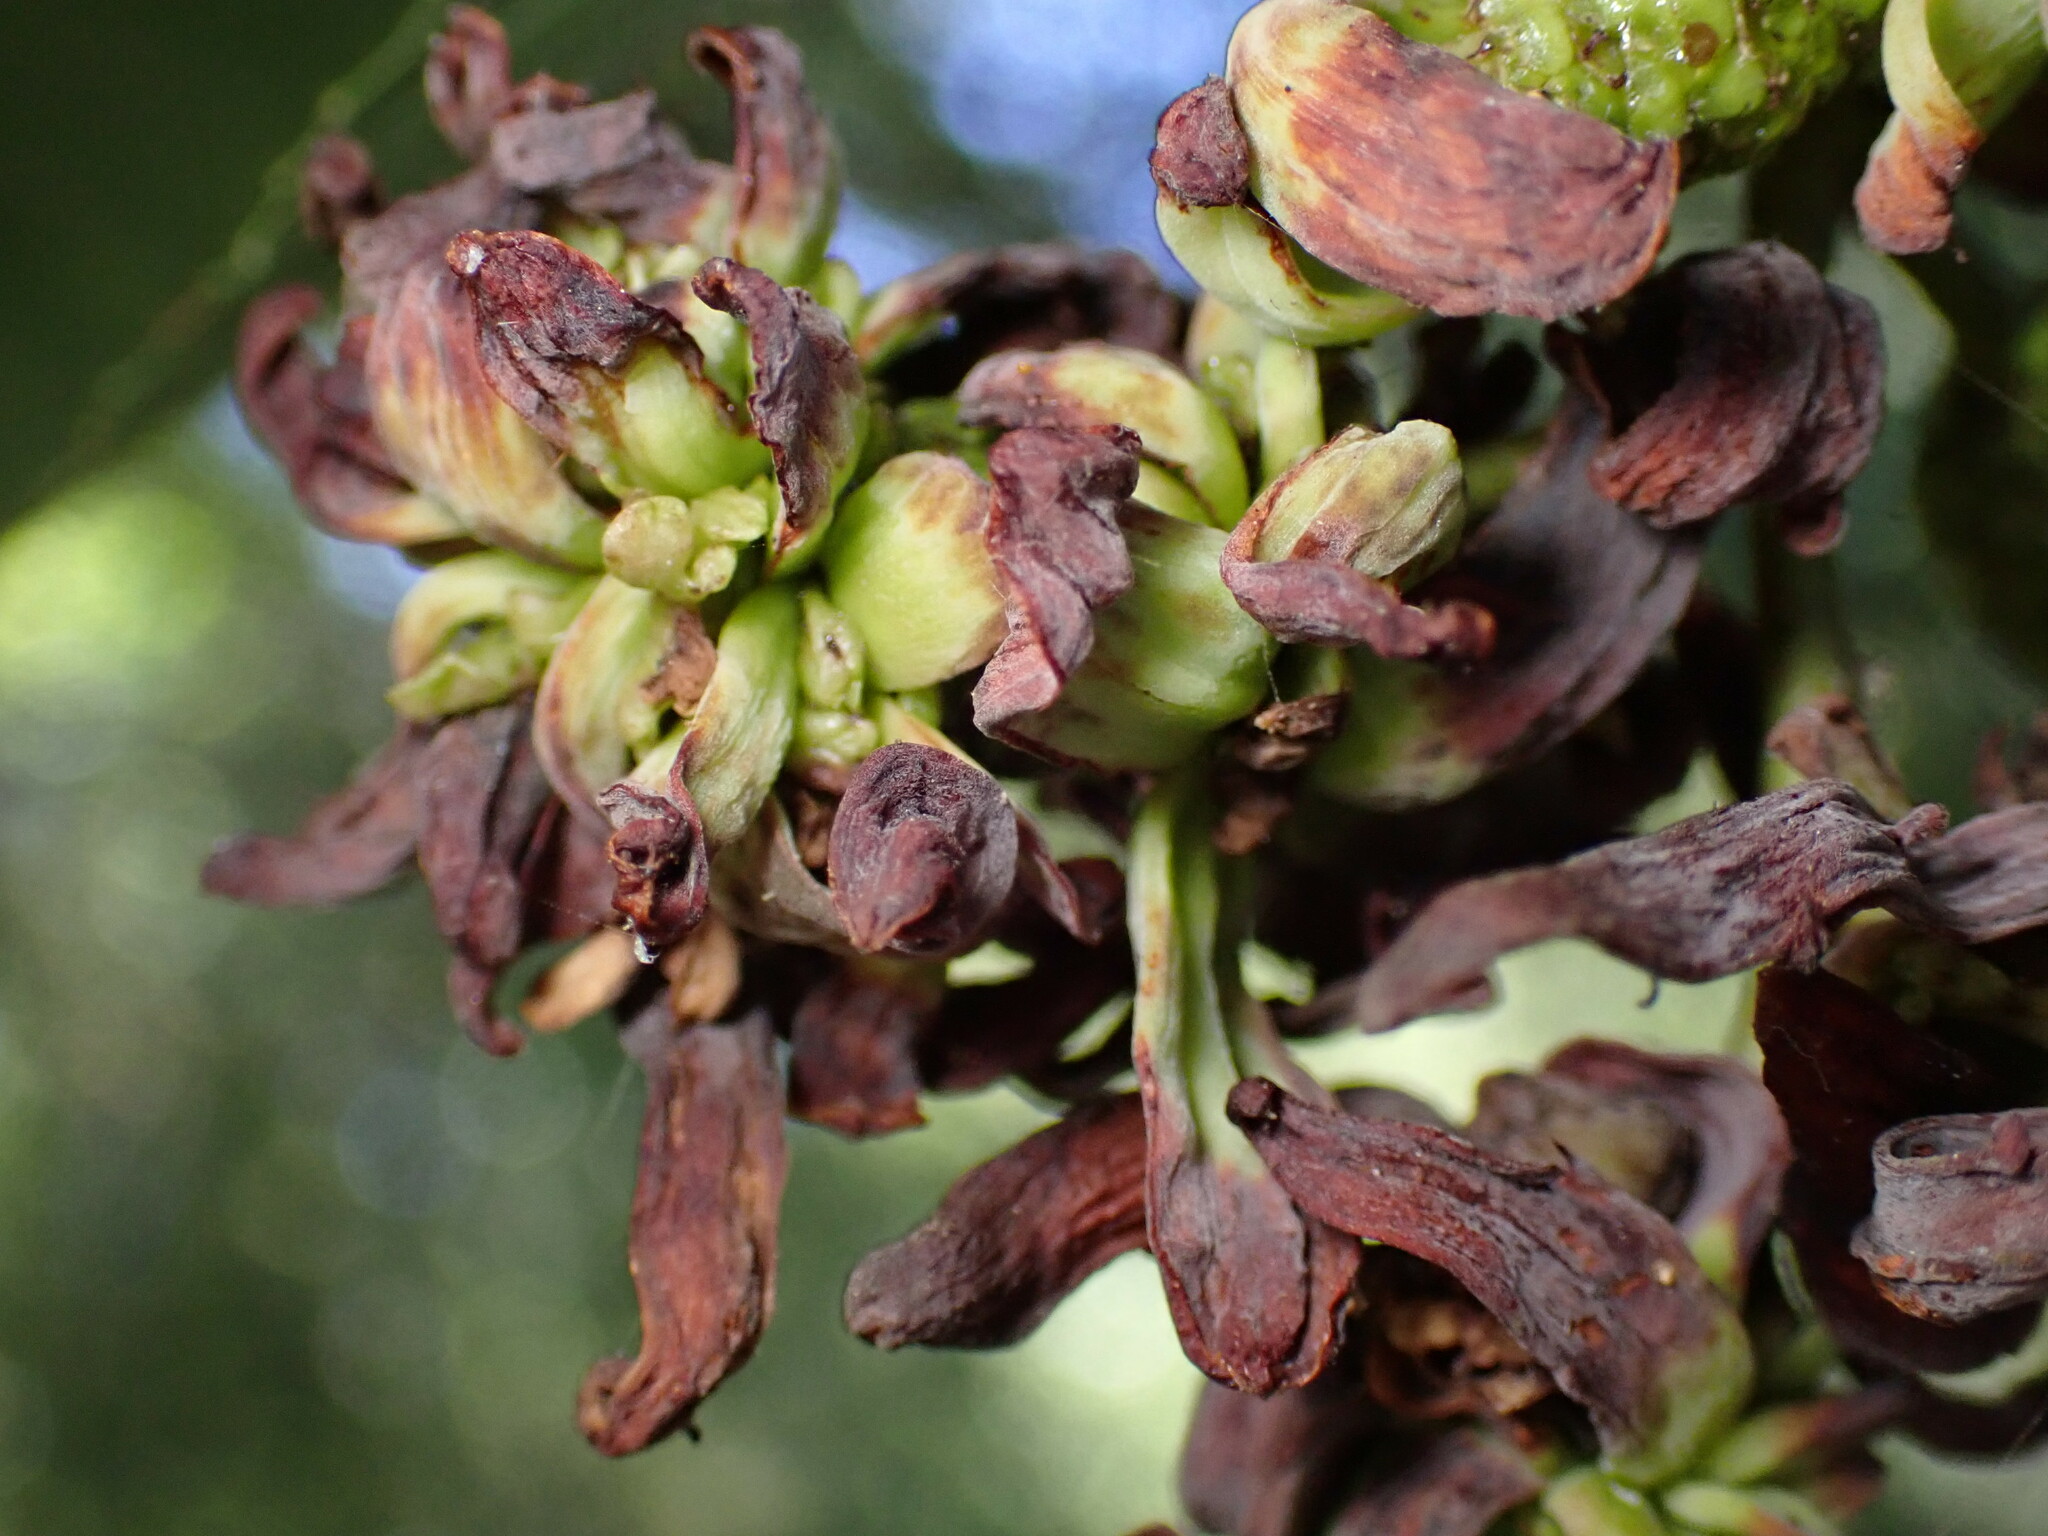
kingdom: Fungi
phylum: Ascomycota
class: Taphrinomycetes
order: Taphrinales
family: Taphrinaceae
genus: Taphrina
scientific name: Taphrina occidentalis
